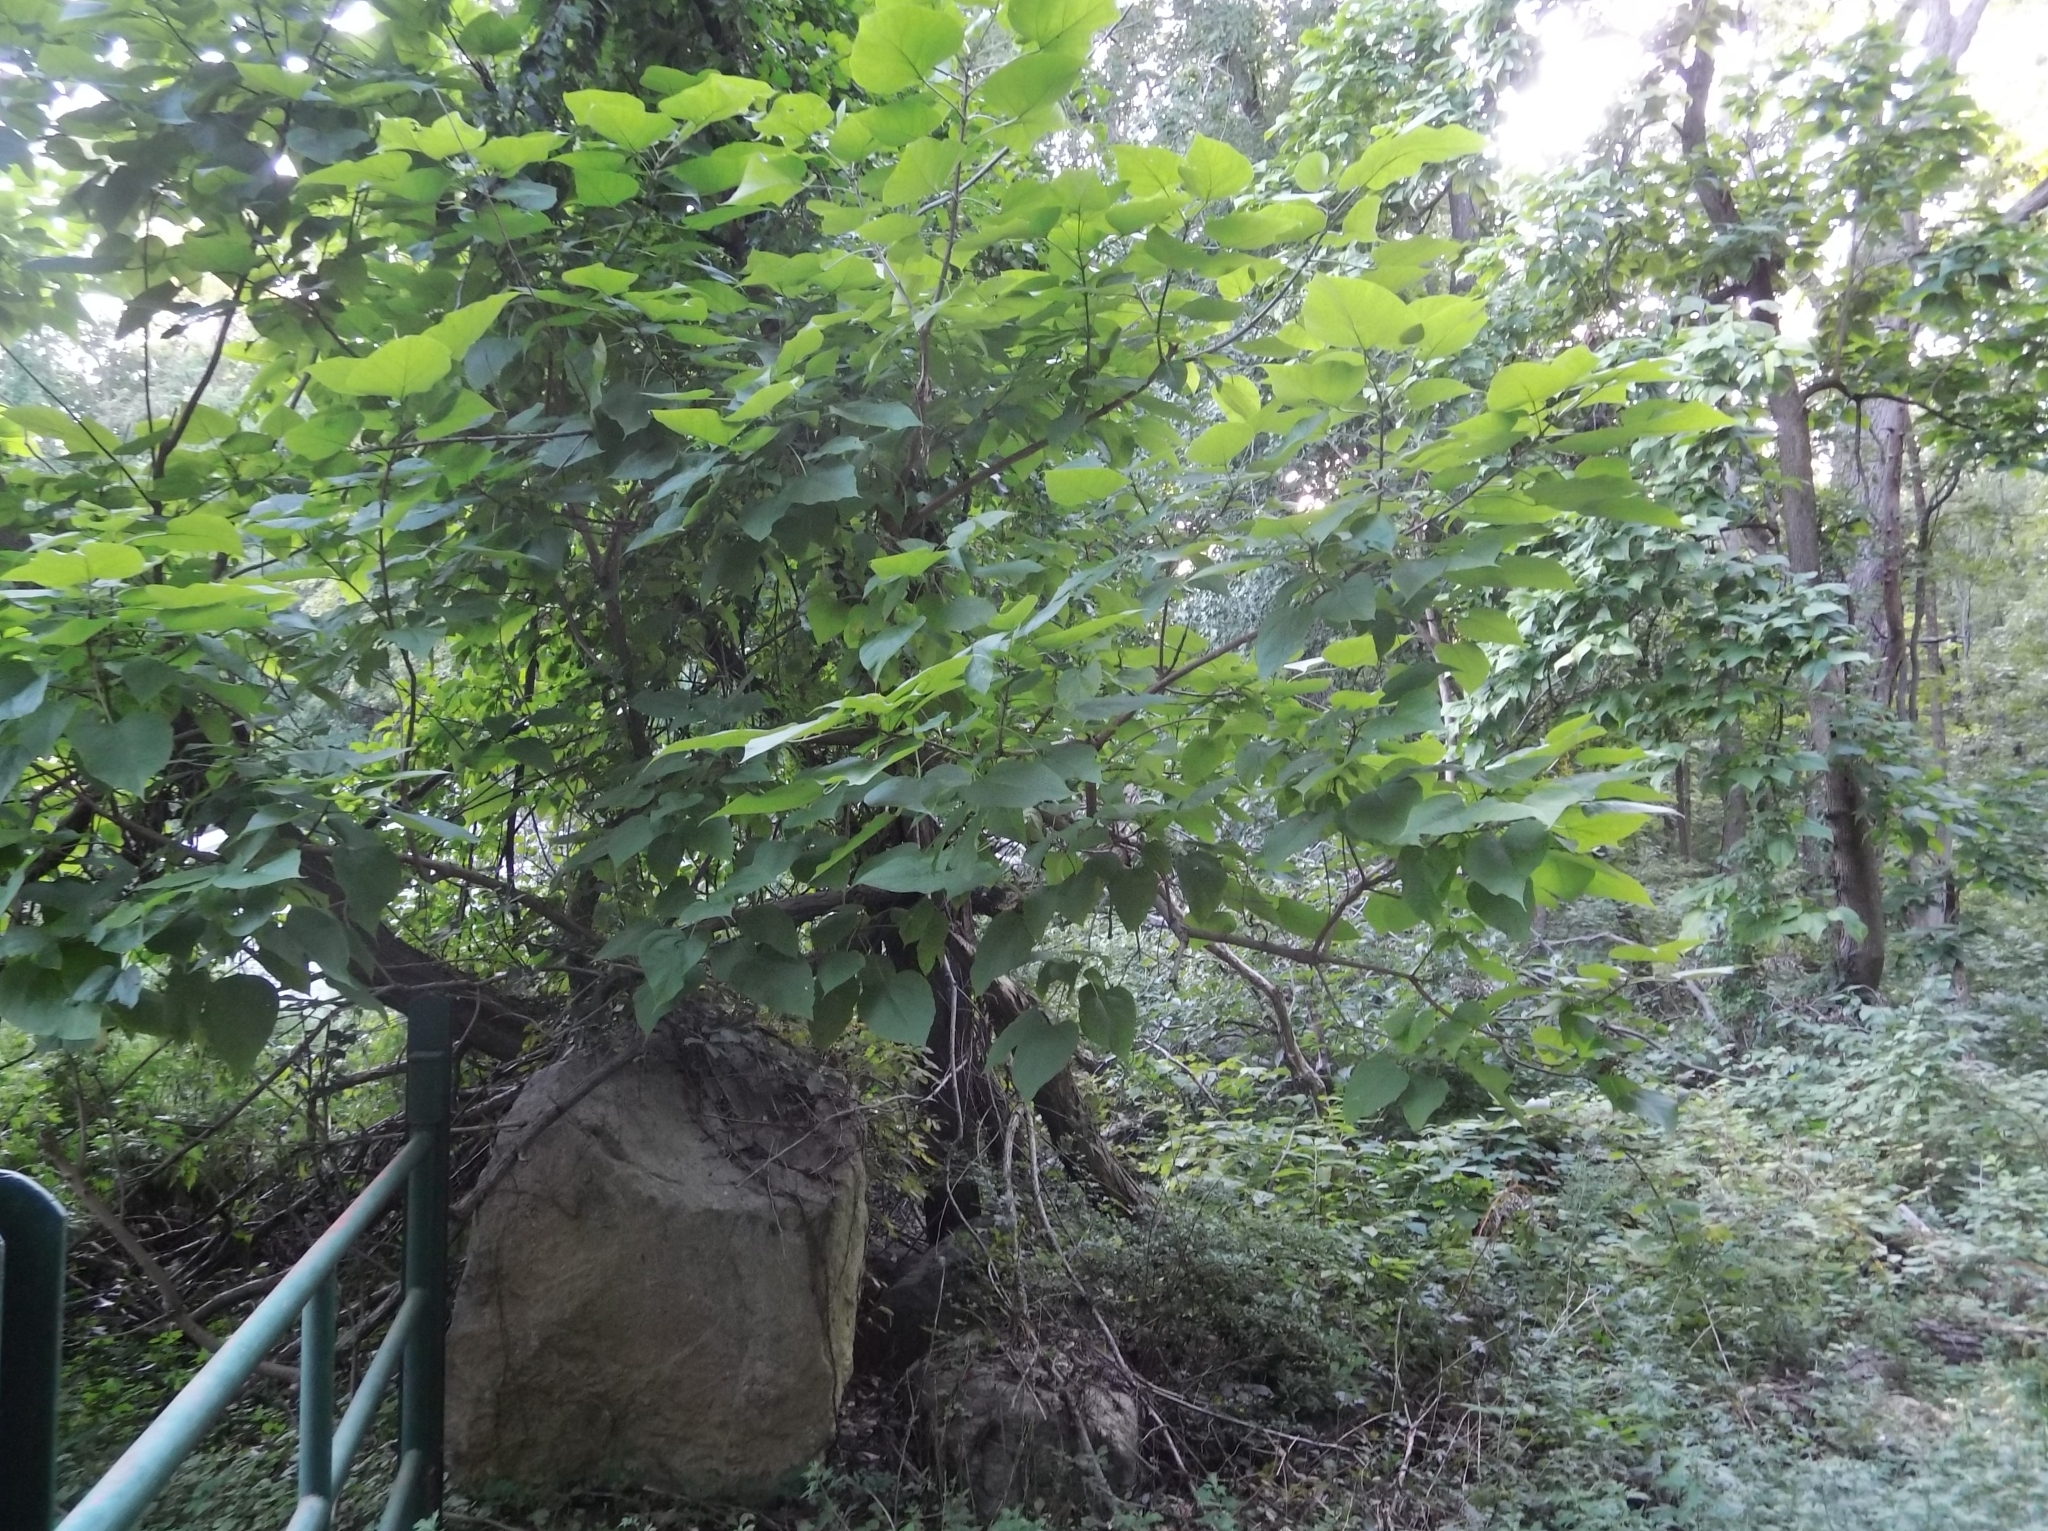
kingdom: Plantae
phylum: Tracheophyta
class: Magnoliopsida
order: Lamiales
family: Bignoniaceae
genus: Catalpa
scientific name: Catalpa speciosa
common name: Northern catalpa
